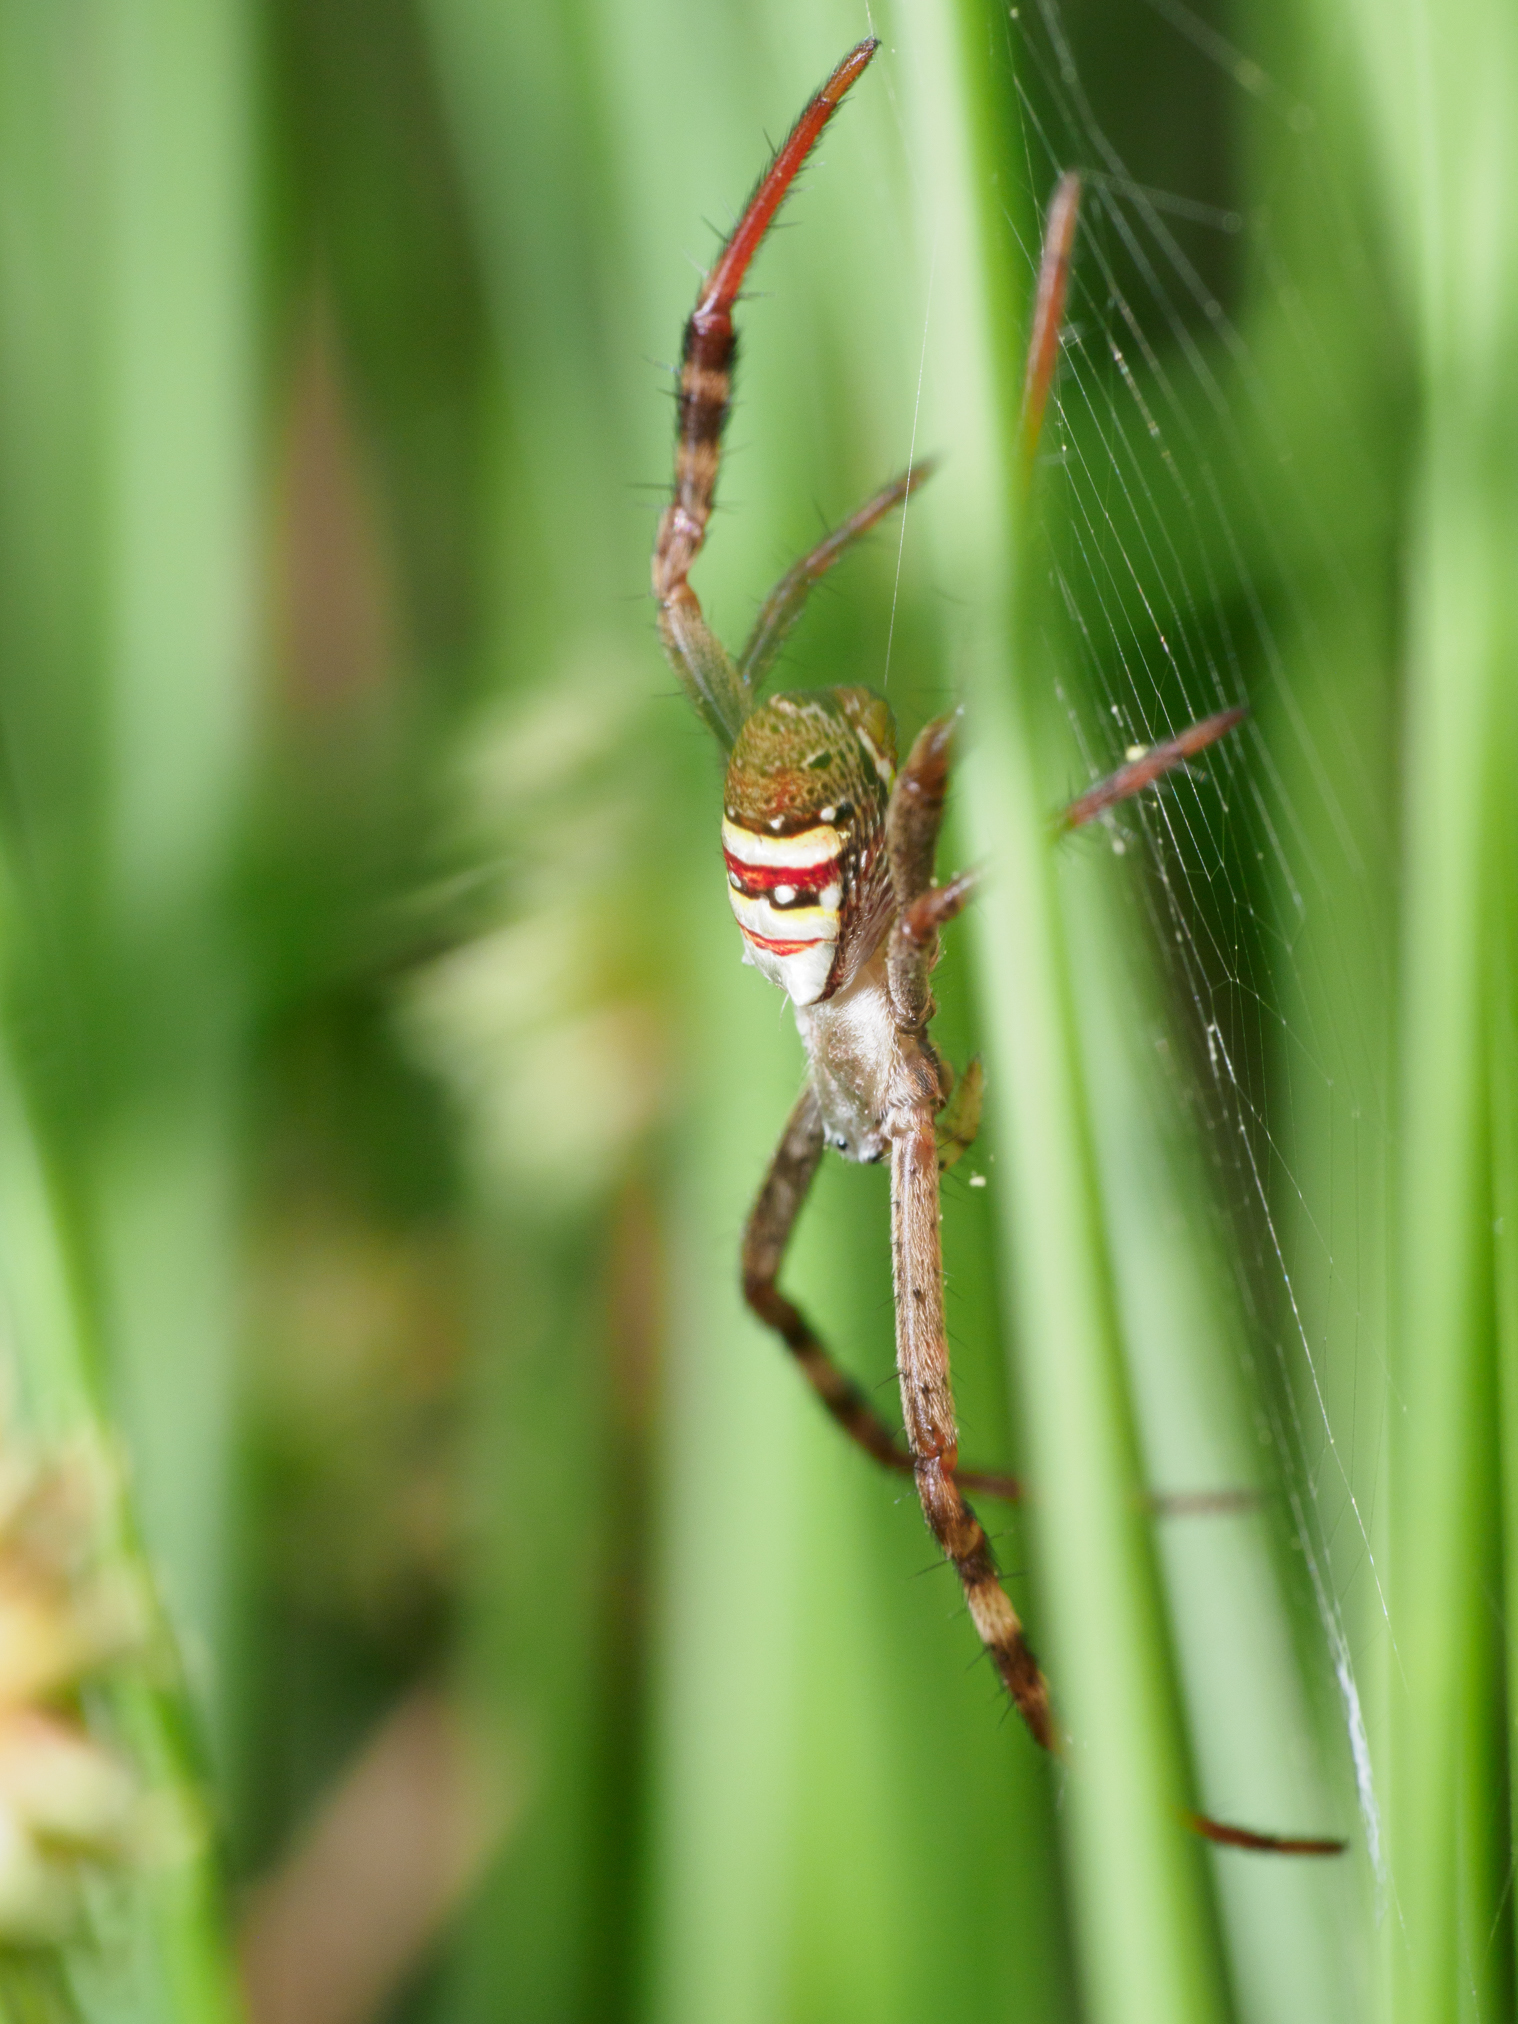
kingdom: Animalia
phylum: Arthropoda
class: Arachnida
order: Araneae
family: Araneidae
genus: Argiope
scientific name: Argiope keyserlingi
